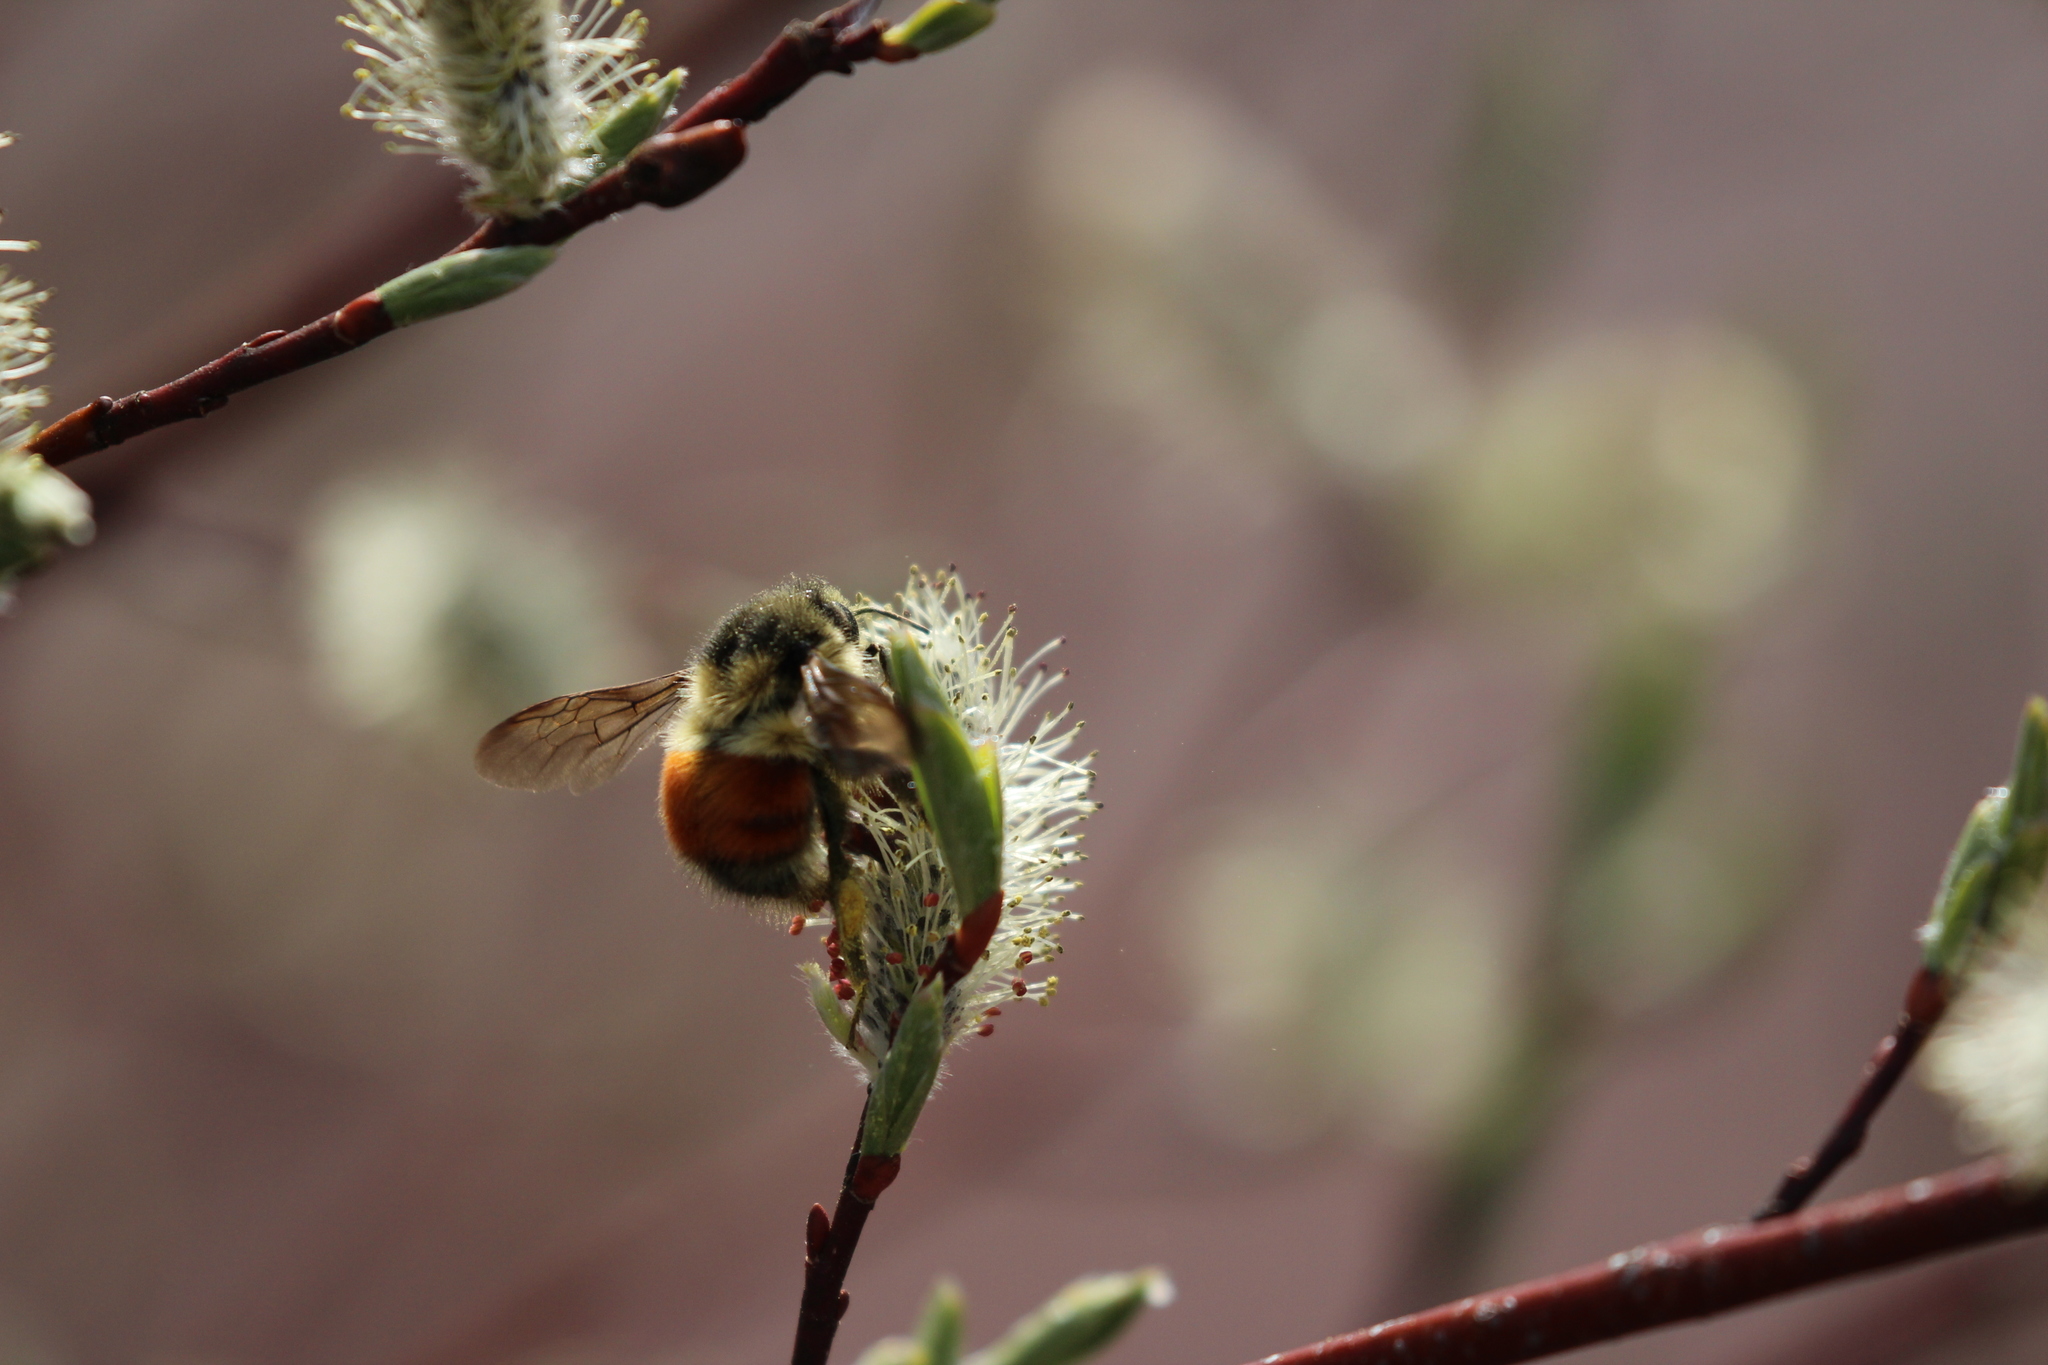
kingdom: Animalia
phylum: Arthropoda
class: Insecta
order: Hymenoptera
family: Apidae
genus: Bombus
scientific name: Bombus melanopygus
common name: Black tail bumble bee
